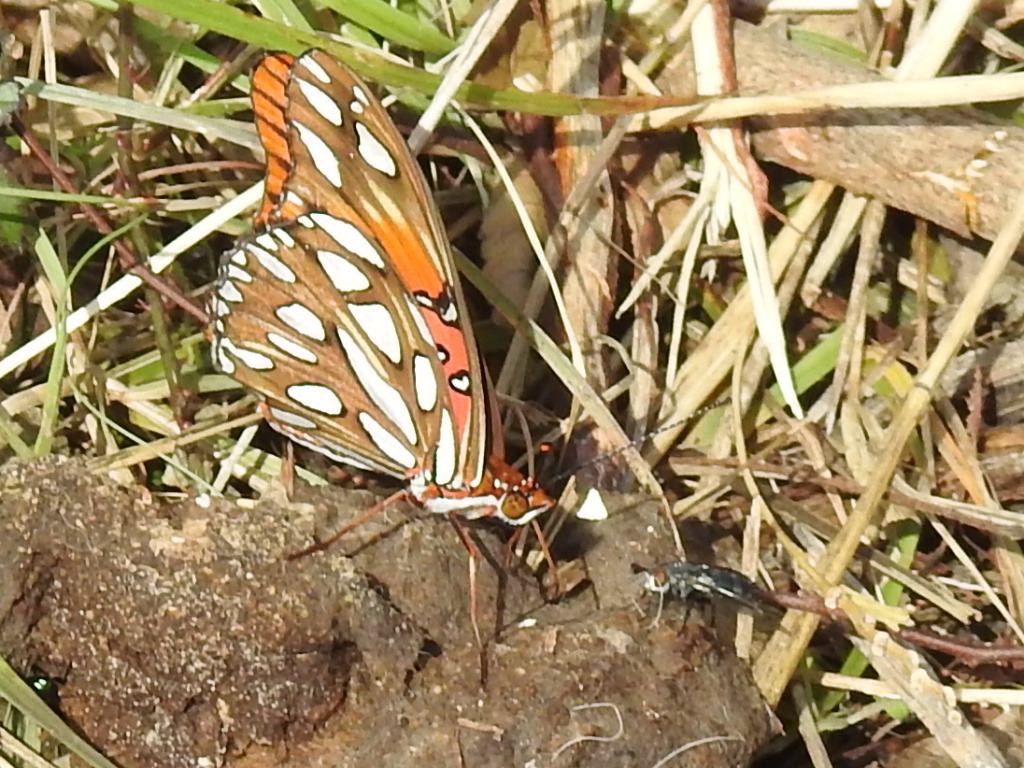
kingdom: Animalia
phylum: Arthropoda
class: Insecta
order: Lepidoptera
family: Nymphalidae
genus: Dione
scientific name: Dione vanillae
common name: Gulf fritillary
